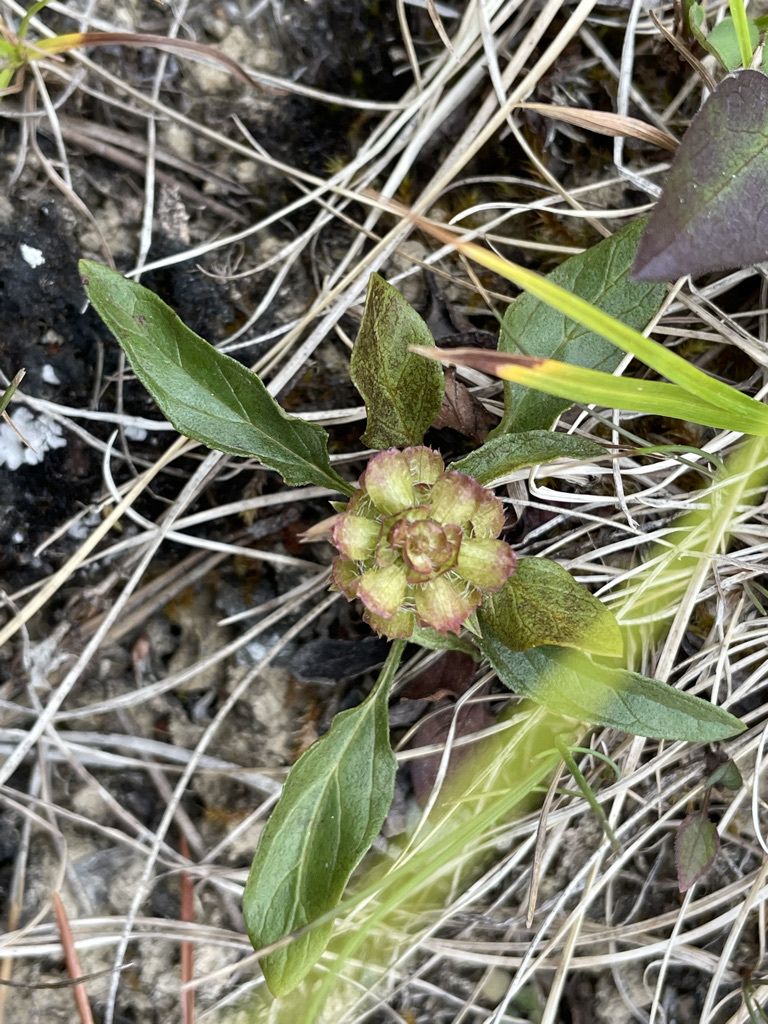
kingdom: Plantae
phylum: Tracheophyta
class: Magnoliopsida
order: Lamiales
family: Lamiaceae
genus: Prunella
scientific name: Prunella vulgaris
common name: Heal-all
